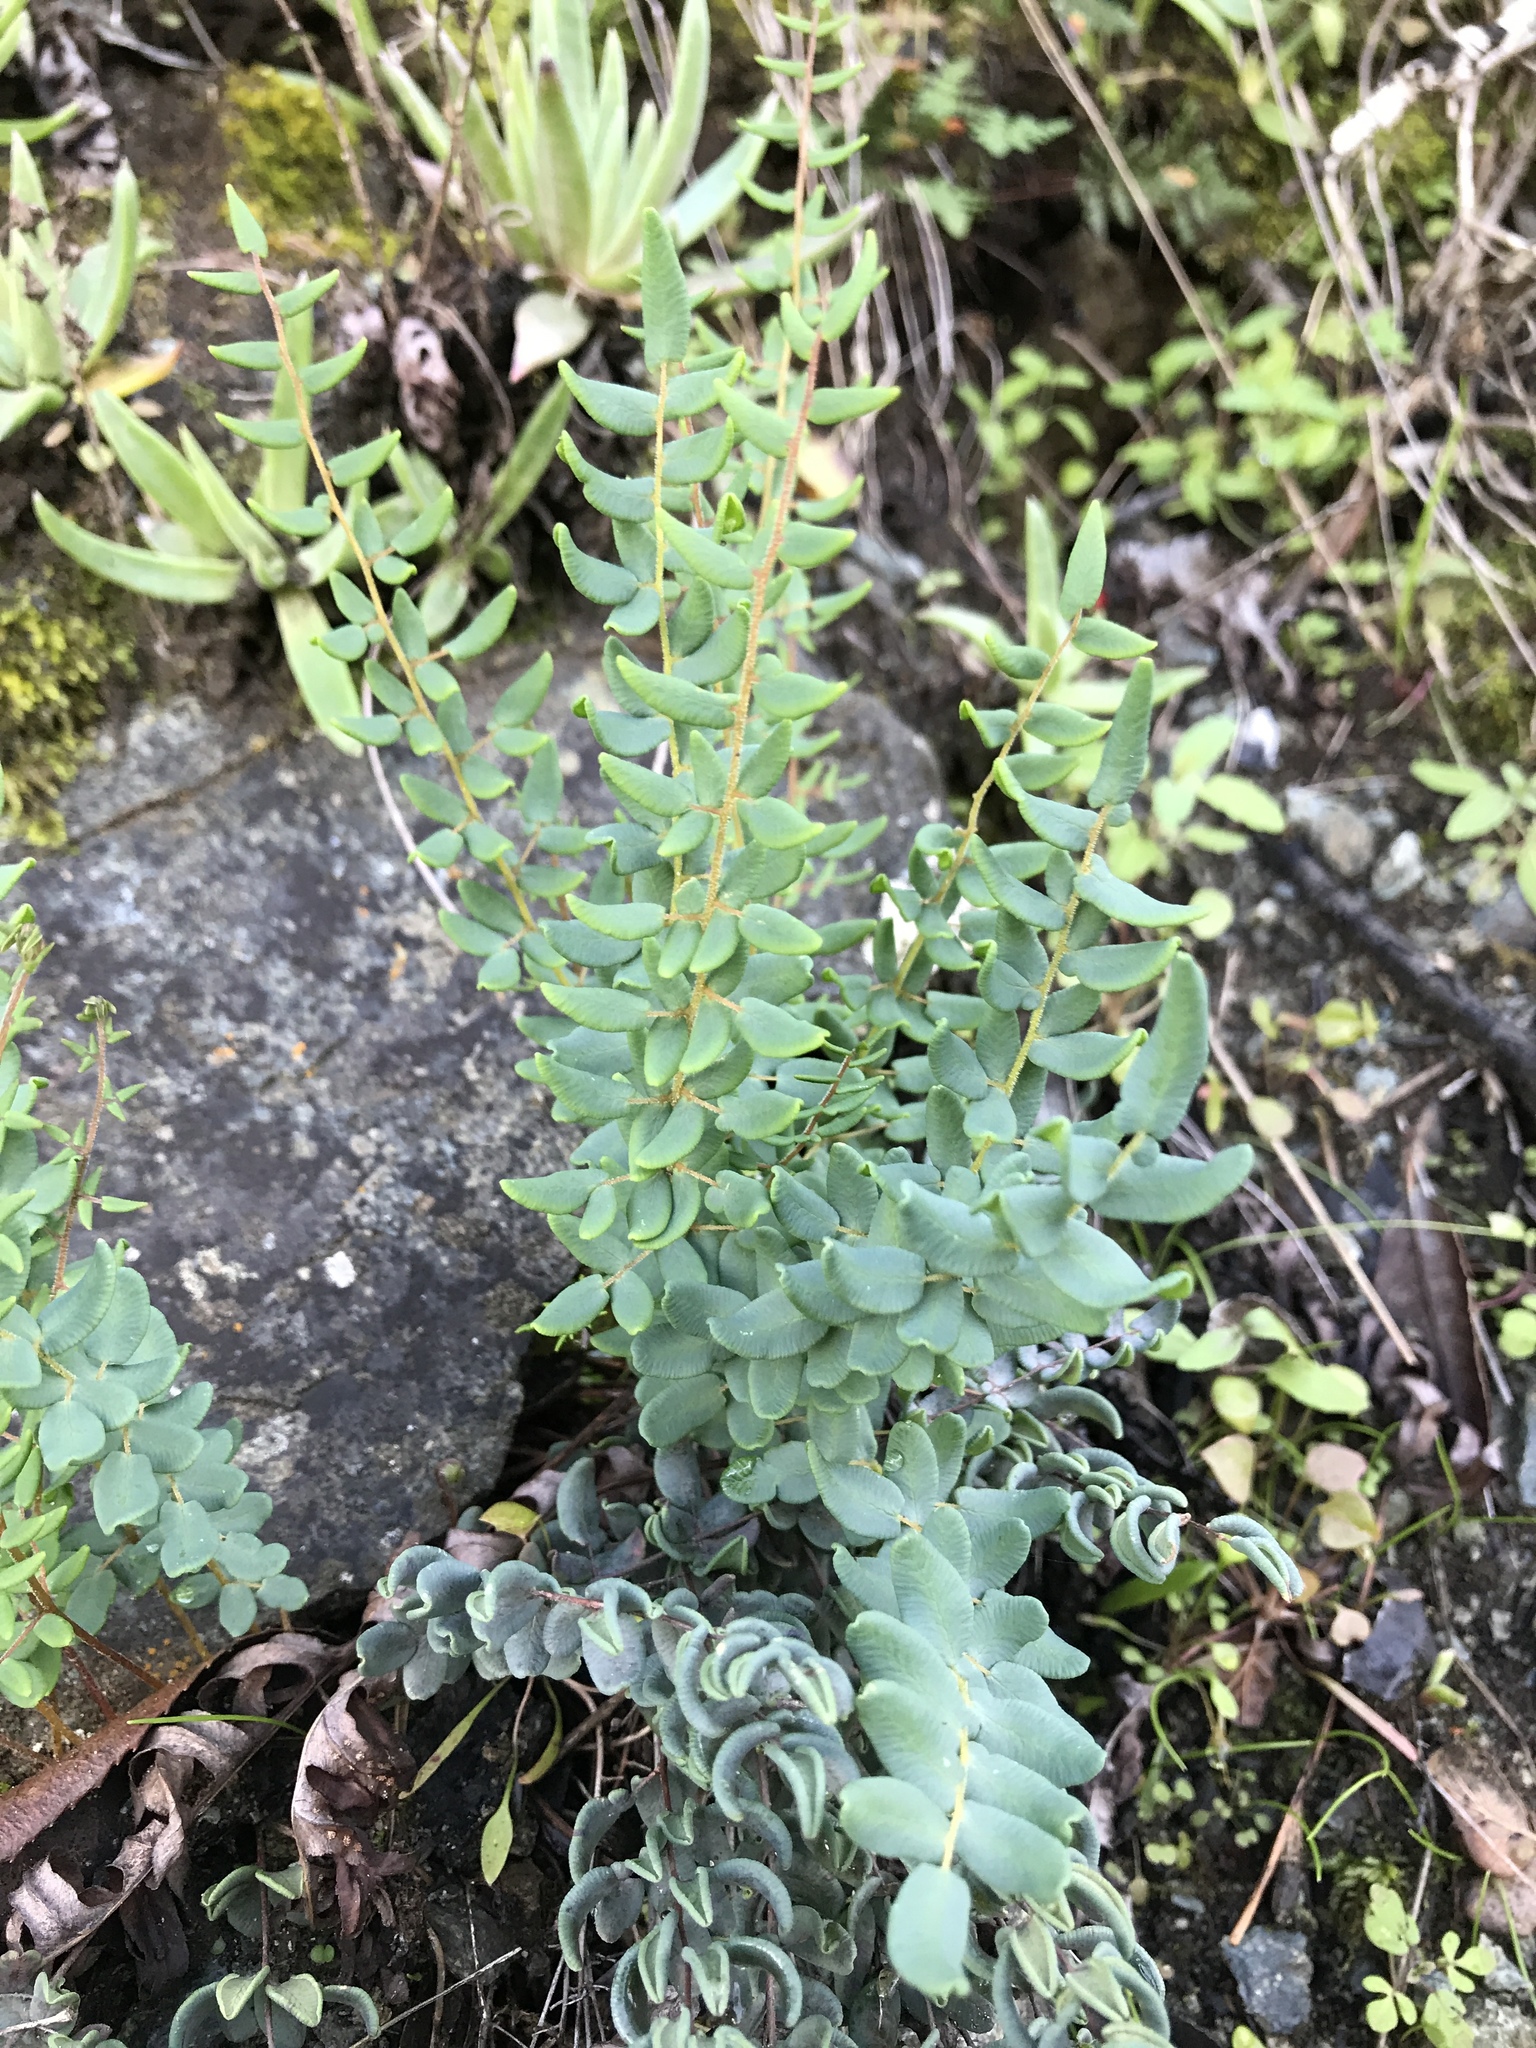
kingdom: Plantae
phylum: Tracheophyta
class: Polypodiopsida
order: Polypodiales
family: Pteridaceae
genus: Pellaea
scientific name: Pellaea andromedifolia
